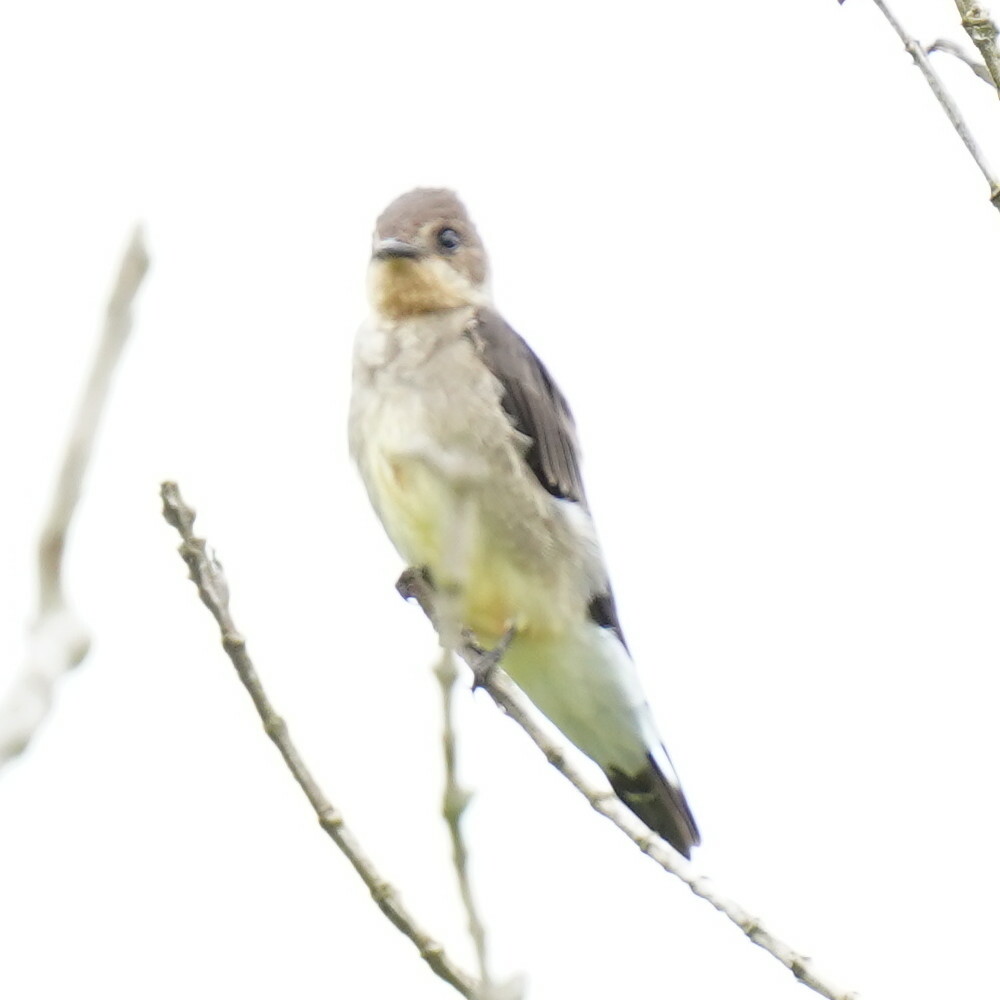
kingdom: Animalia
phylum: Chordata
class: Aves
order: Passeriformes
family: Hirundinidae
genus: Stelgidopteryx
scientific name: Stelgidopteryx ruficollis
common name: Southern rough-winged swallow
